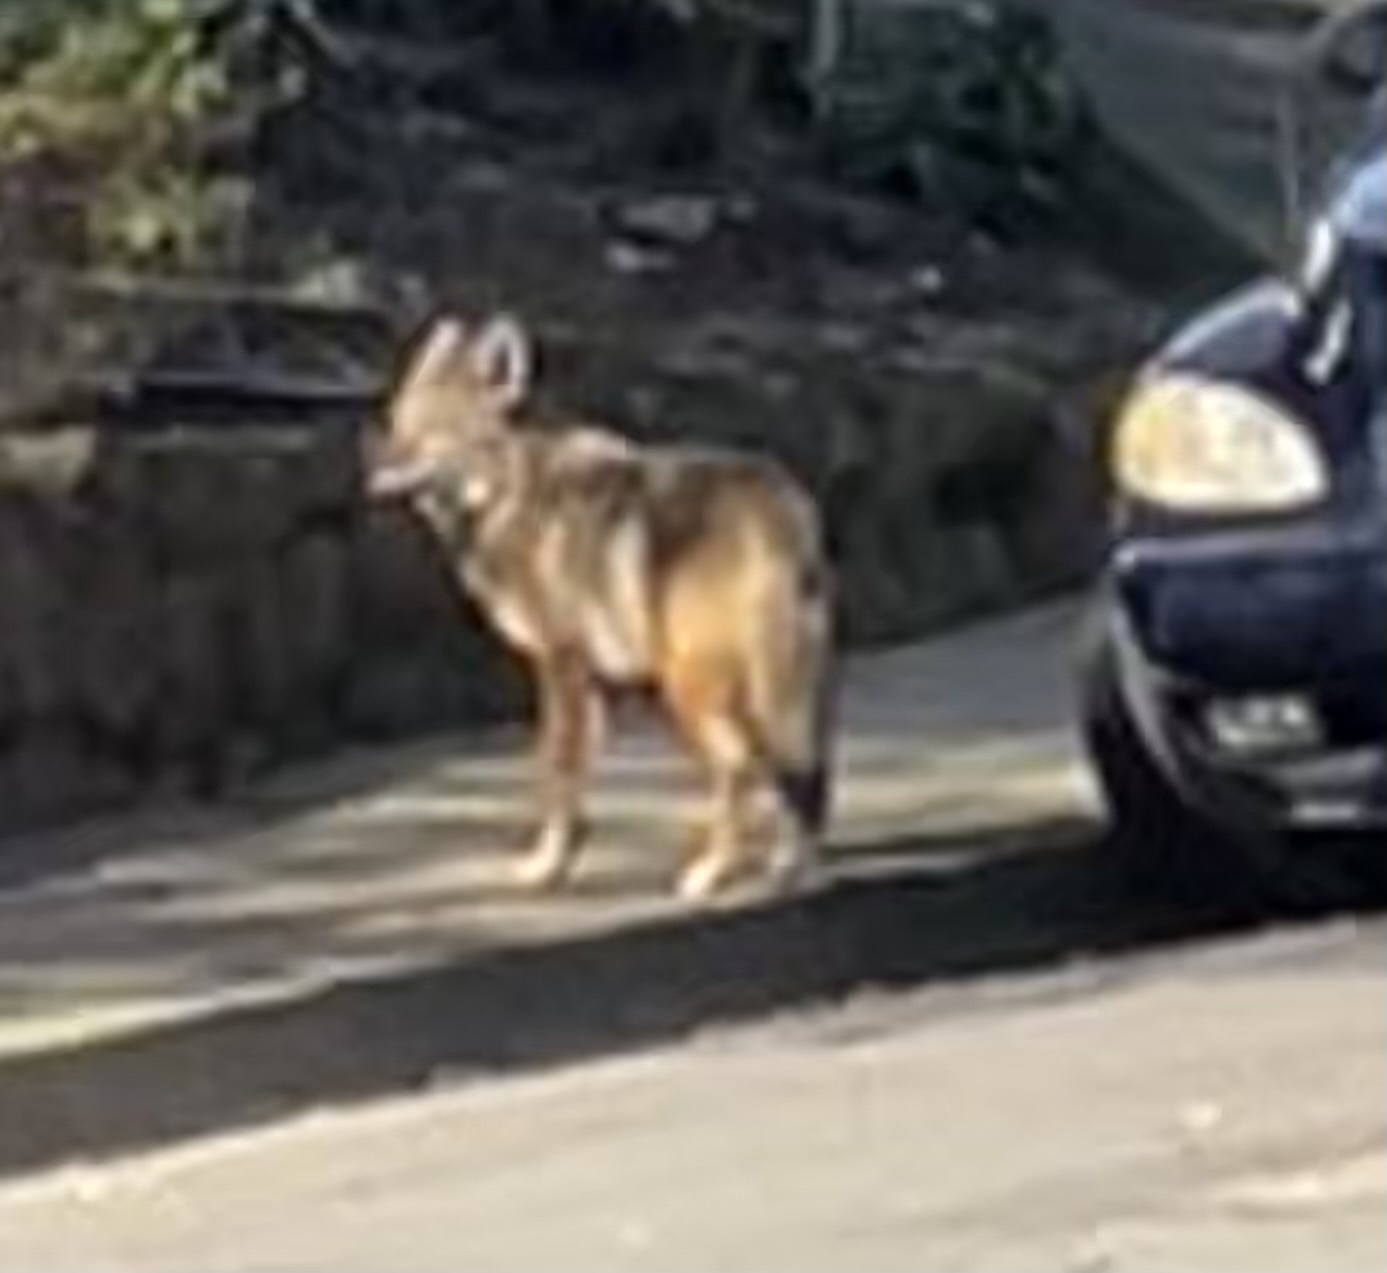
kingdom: Animalia
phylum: Chordata
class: Mammalia
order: Carnivora
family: Canidae
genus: Canis
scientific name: Canis latrans
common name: Coyote
